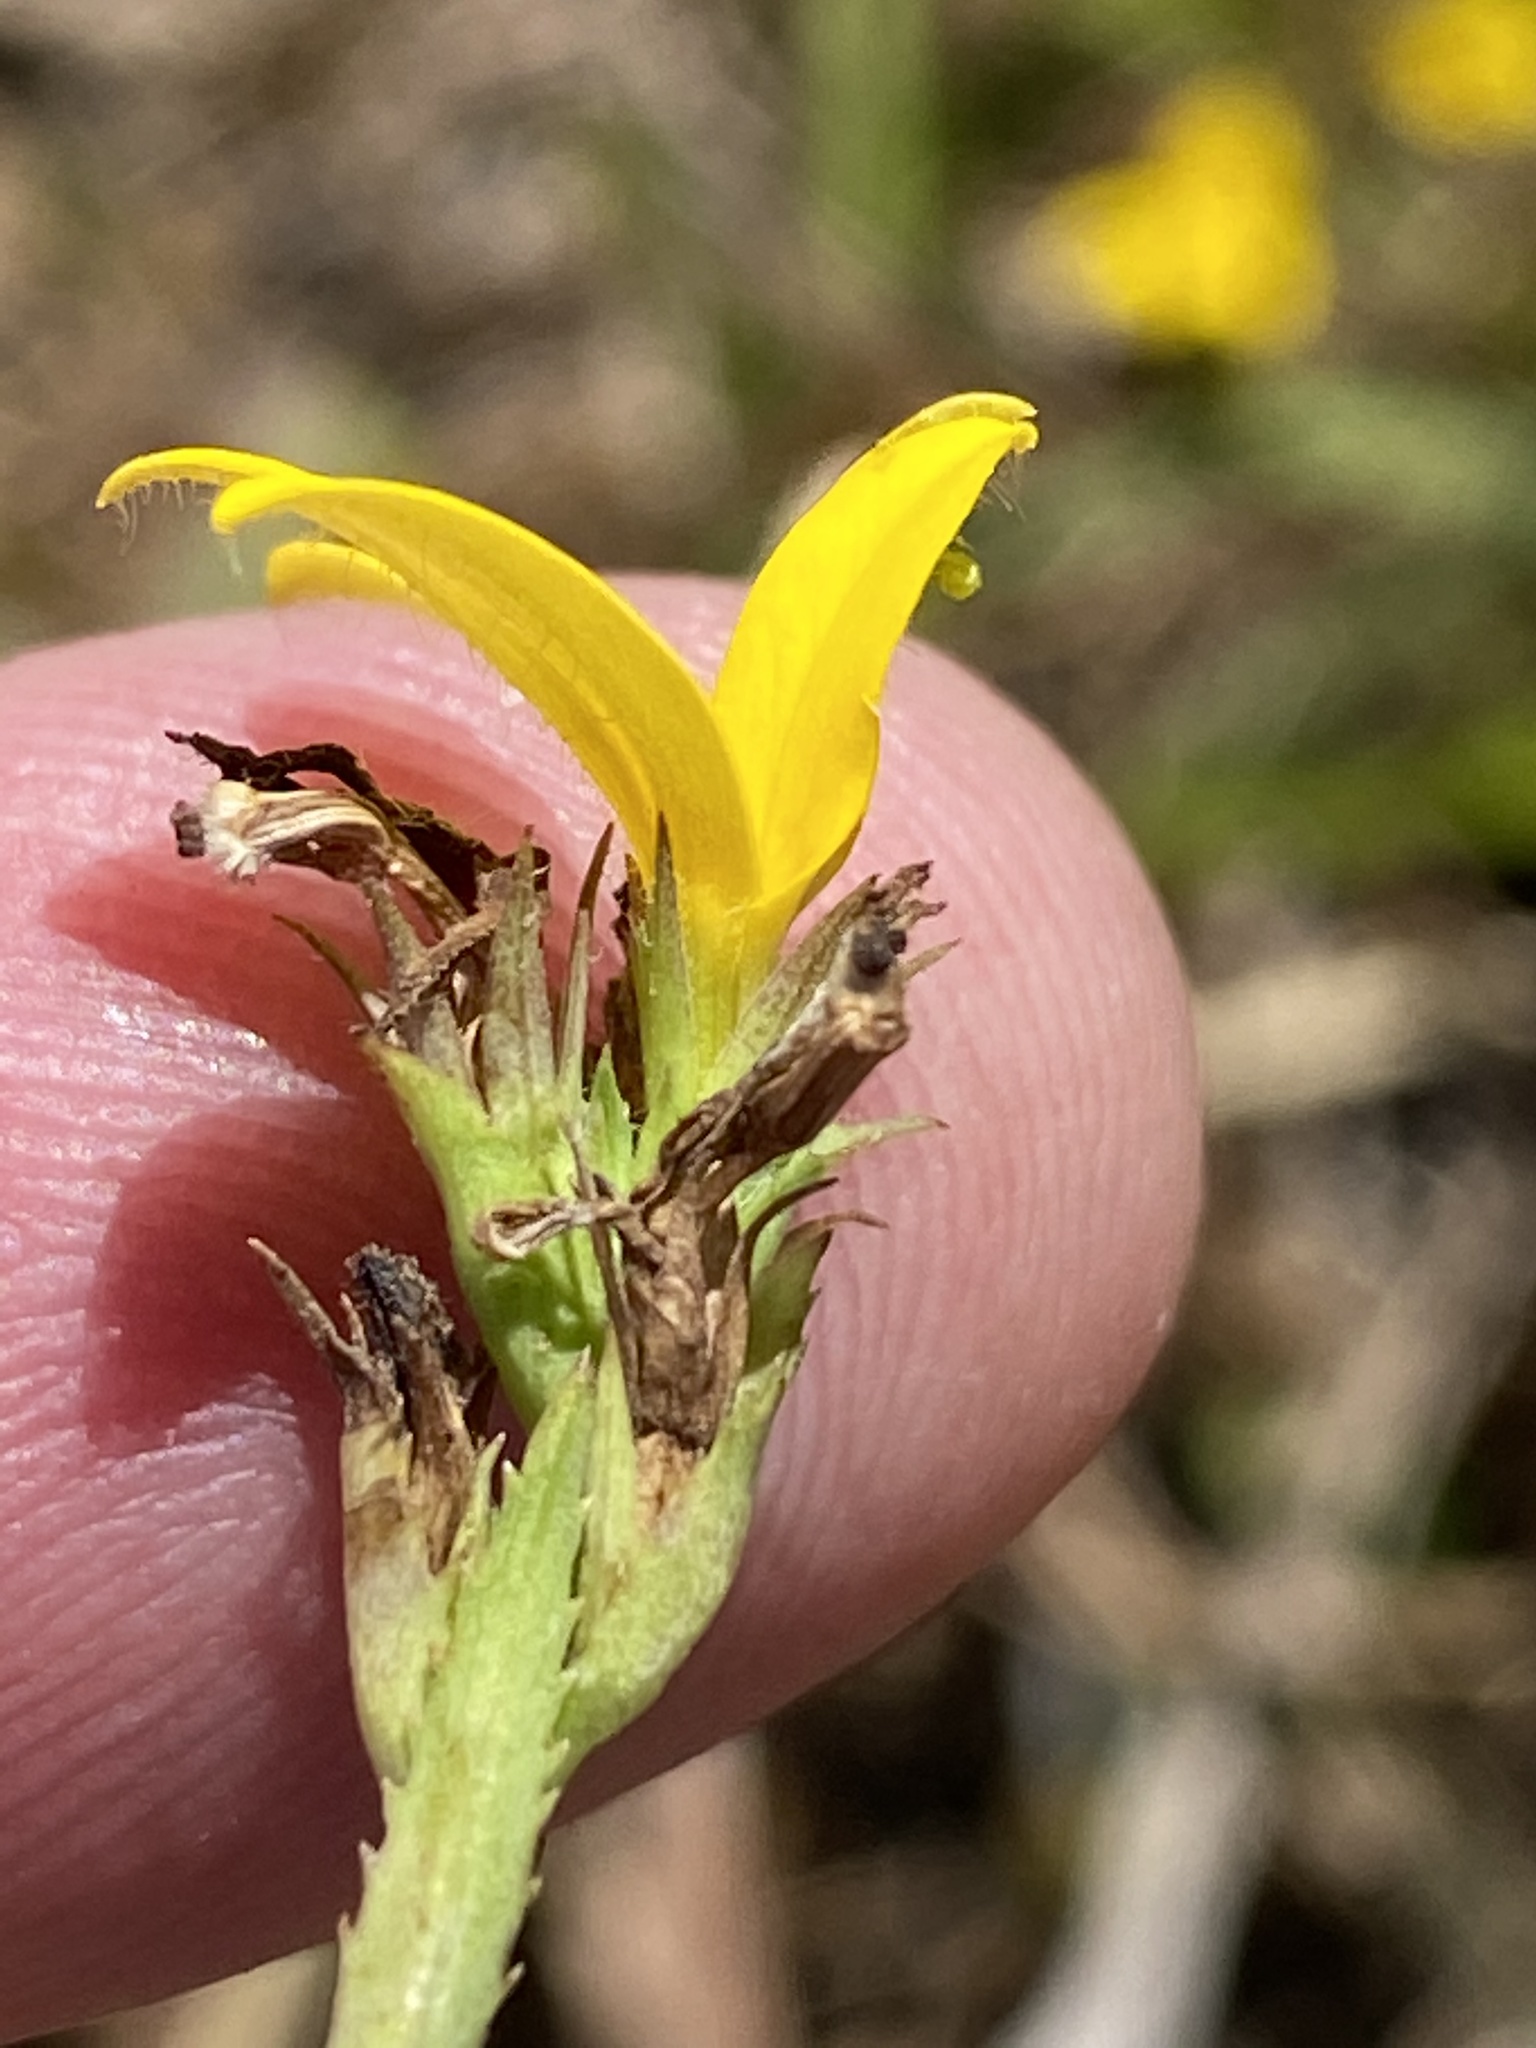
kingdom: Plantae
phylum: Tracheophyta
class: Magnoliopsida
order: Asterales
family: Campanulaceae
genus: Monopsis
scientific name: Monopsis lutea
